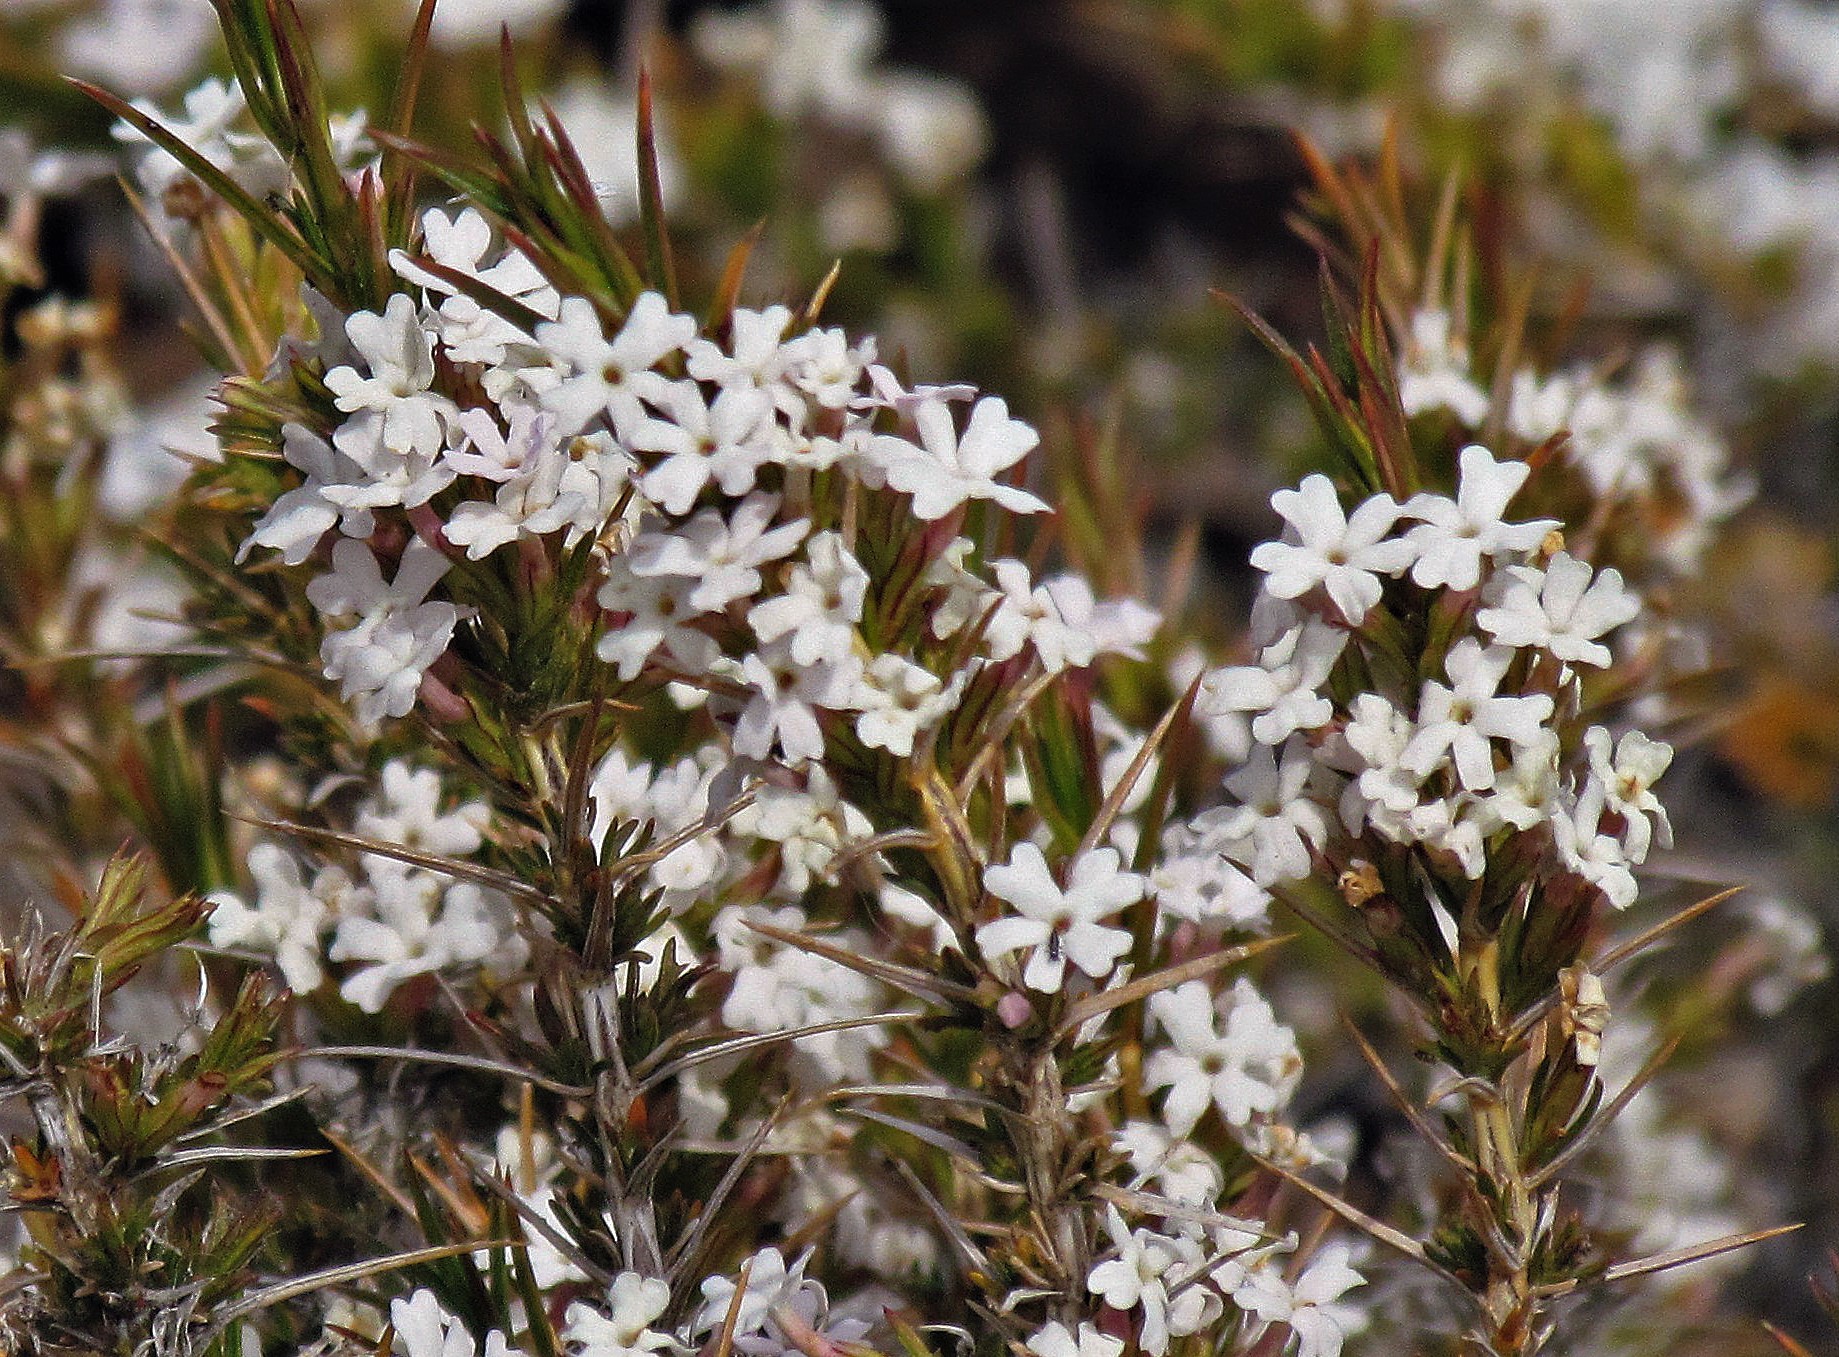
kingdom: Plantae
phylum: Tracheophyta
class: Magnoliopsida
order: Lamiales
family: Verbenaceae
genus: Junellia
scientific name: Junellia toninii
